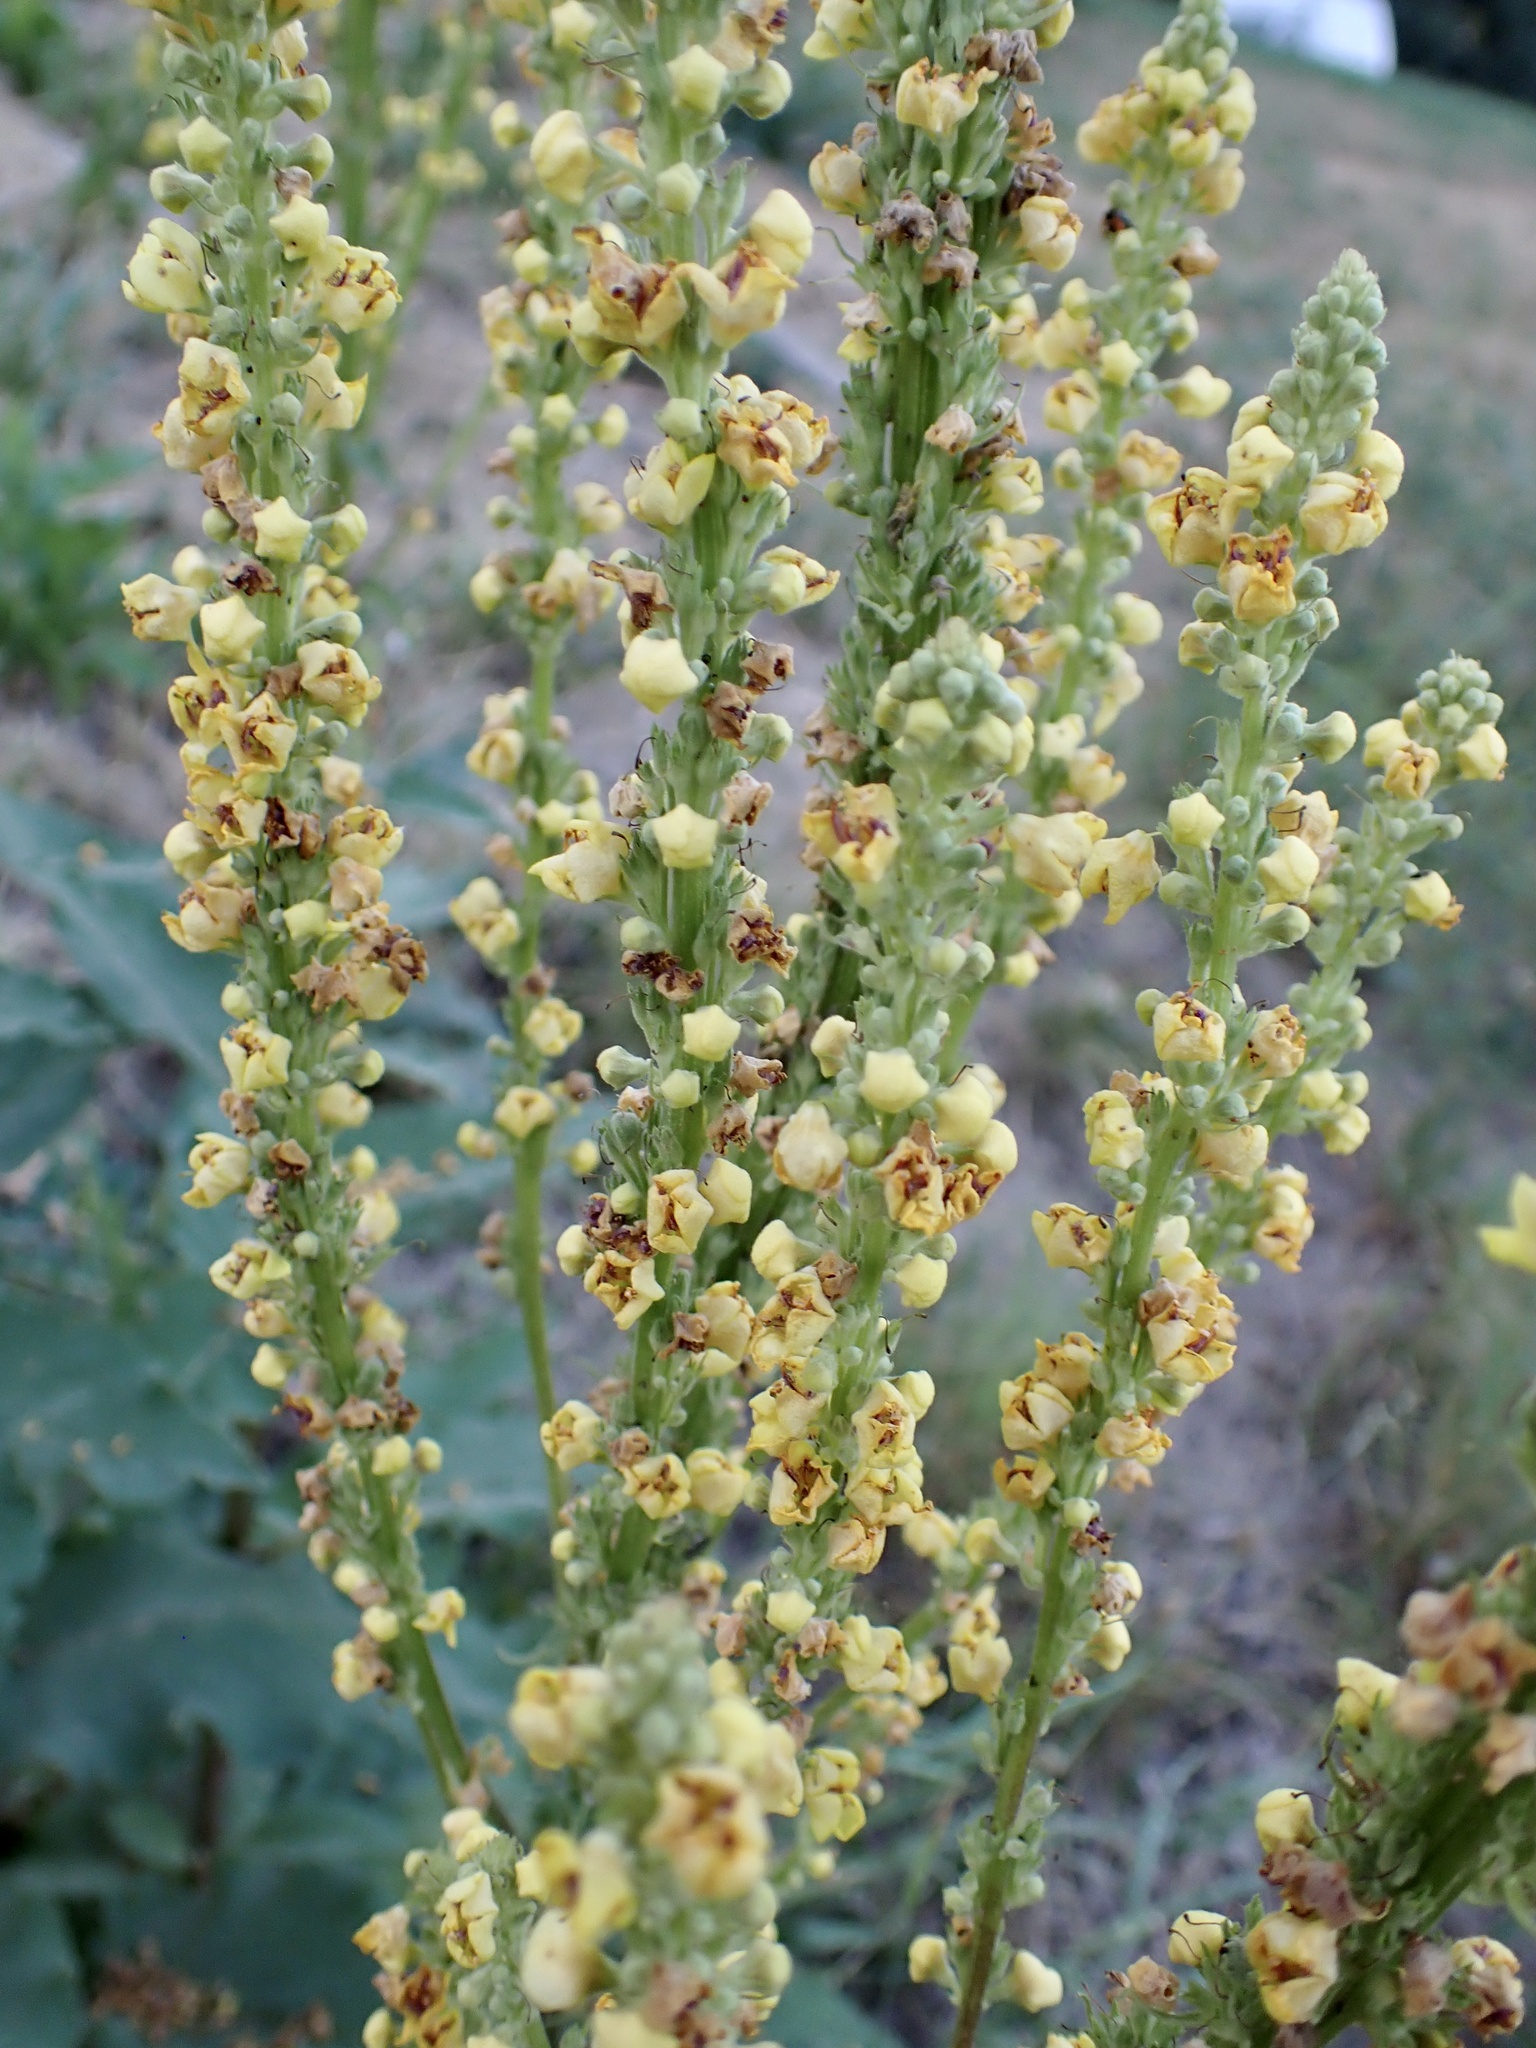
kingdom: Plantae
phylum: Tracheophyta
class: Magnoliopsida
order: Lamiales
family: Scrophulariaceae
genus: Verbascum
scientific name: Verbascum
